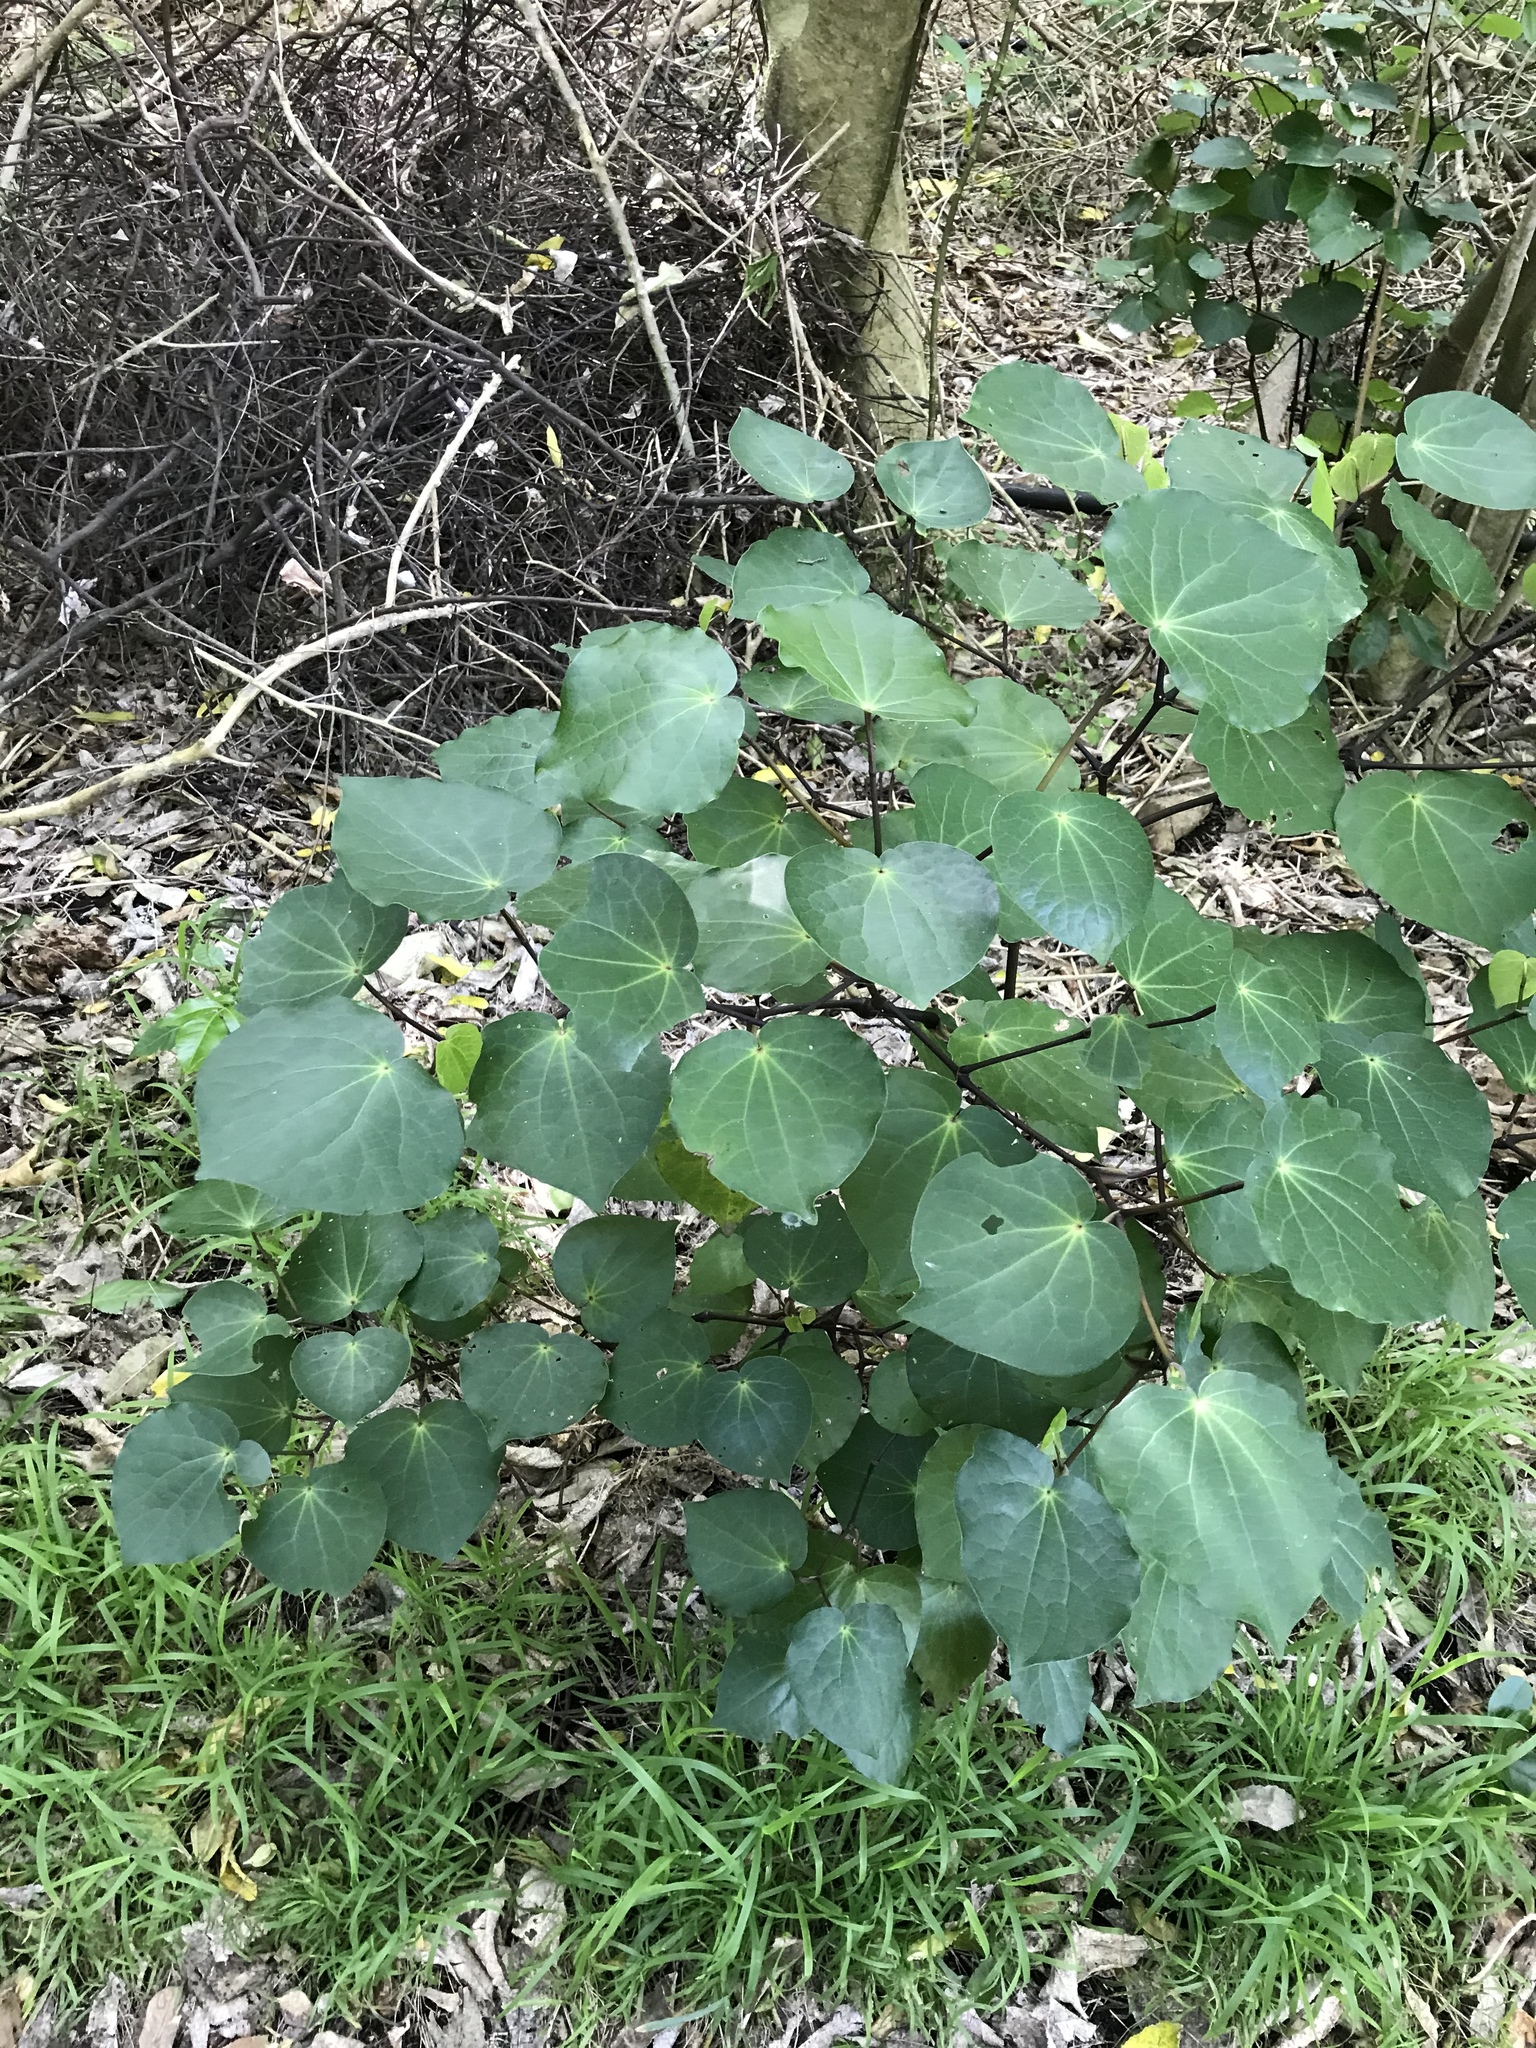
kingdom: Plantae
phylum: Tracheophyta
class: Magnoliopsida
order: Piperales
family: Piperaceae
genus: Macropiper
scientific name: Macropiper excelsum
